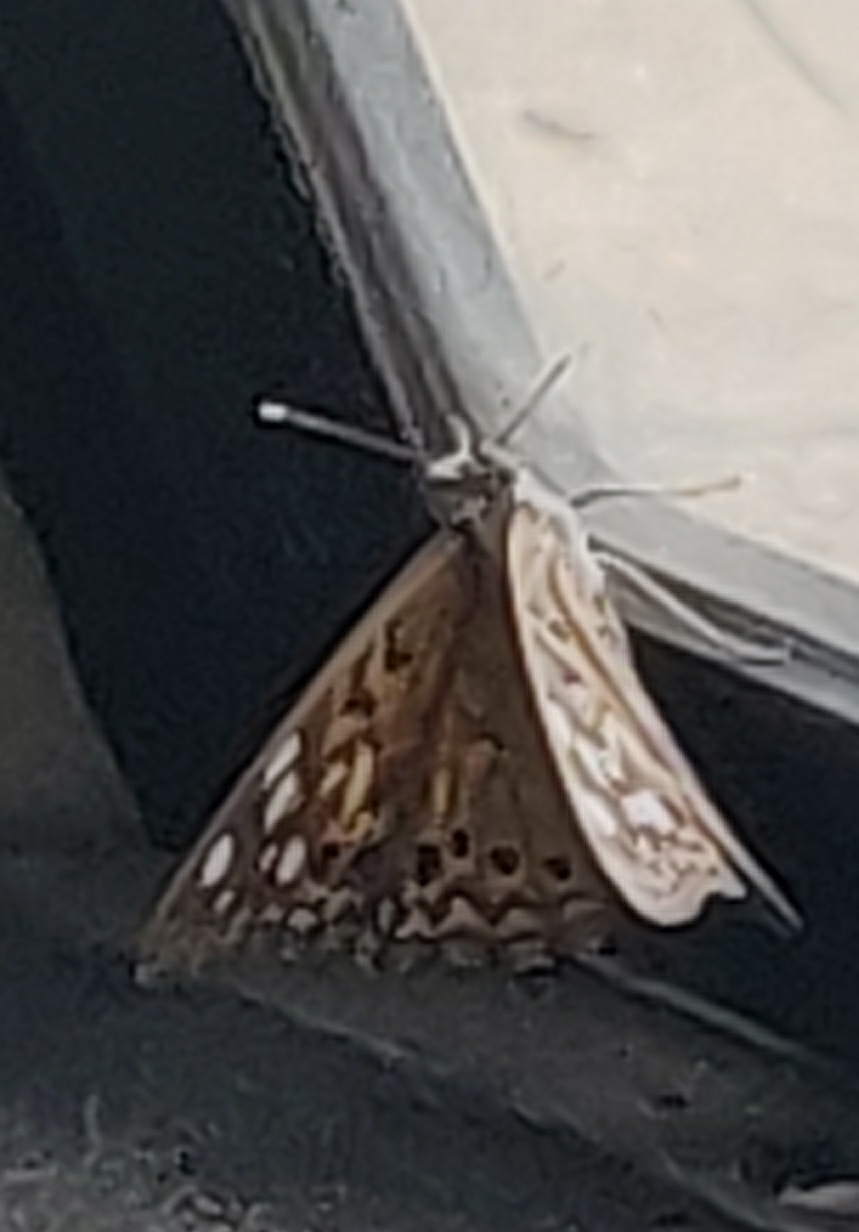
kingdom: Animalia
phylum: Arthropoda
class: Insecta
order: Lepidoptera
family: Nymphalidae
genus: Asterocampa
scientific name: Asterocampa celtis
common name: Hackberry emperor
